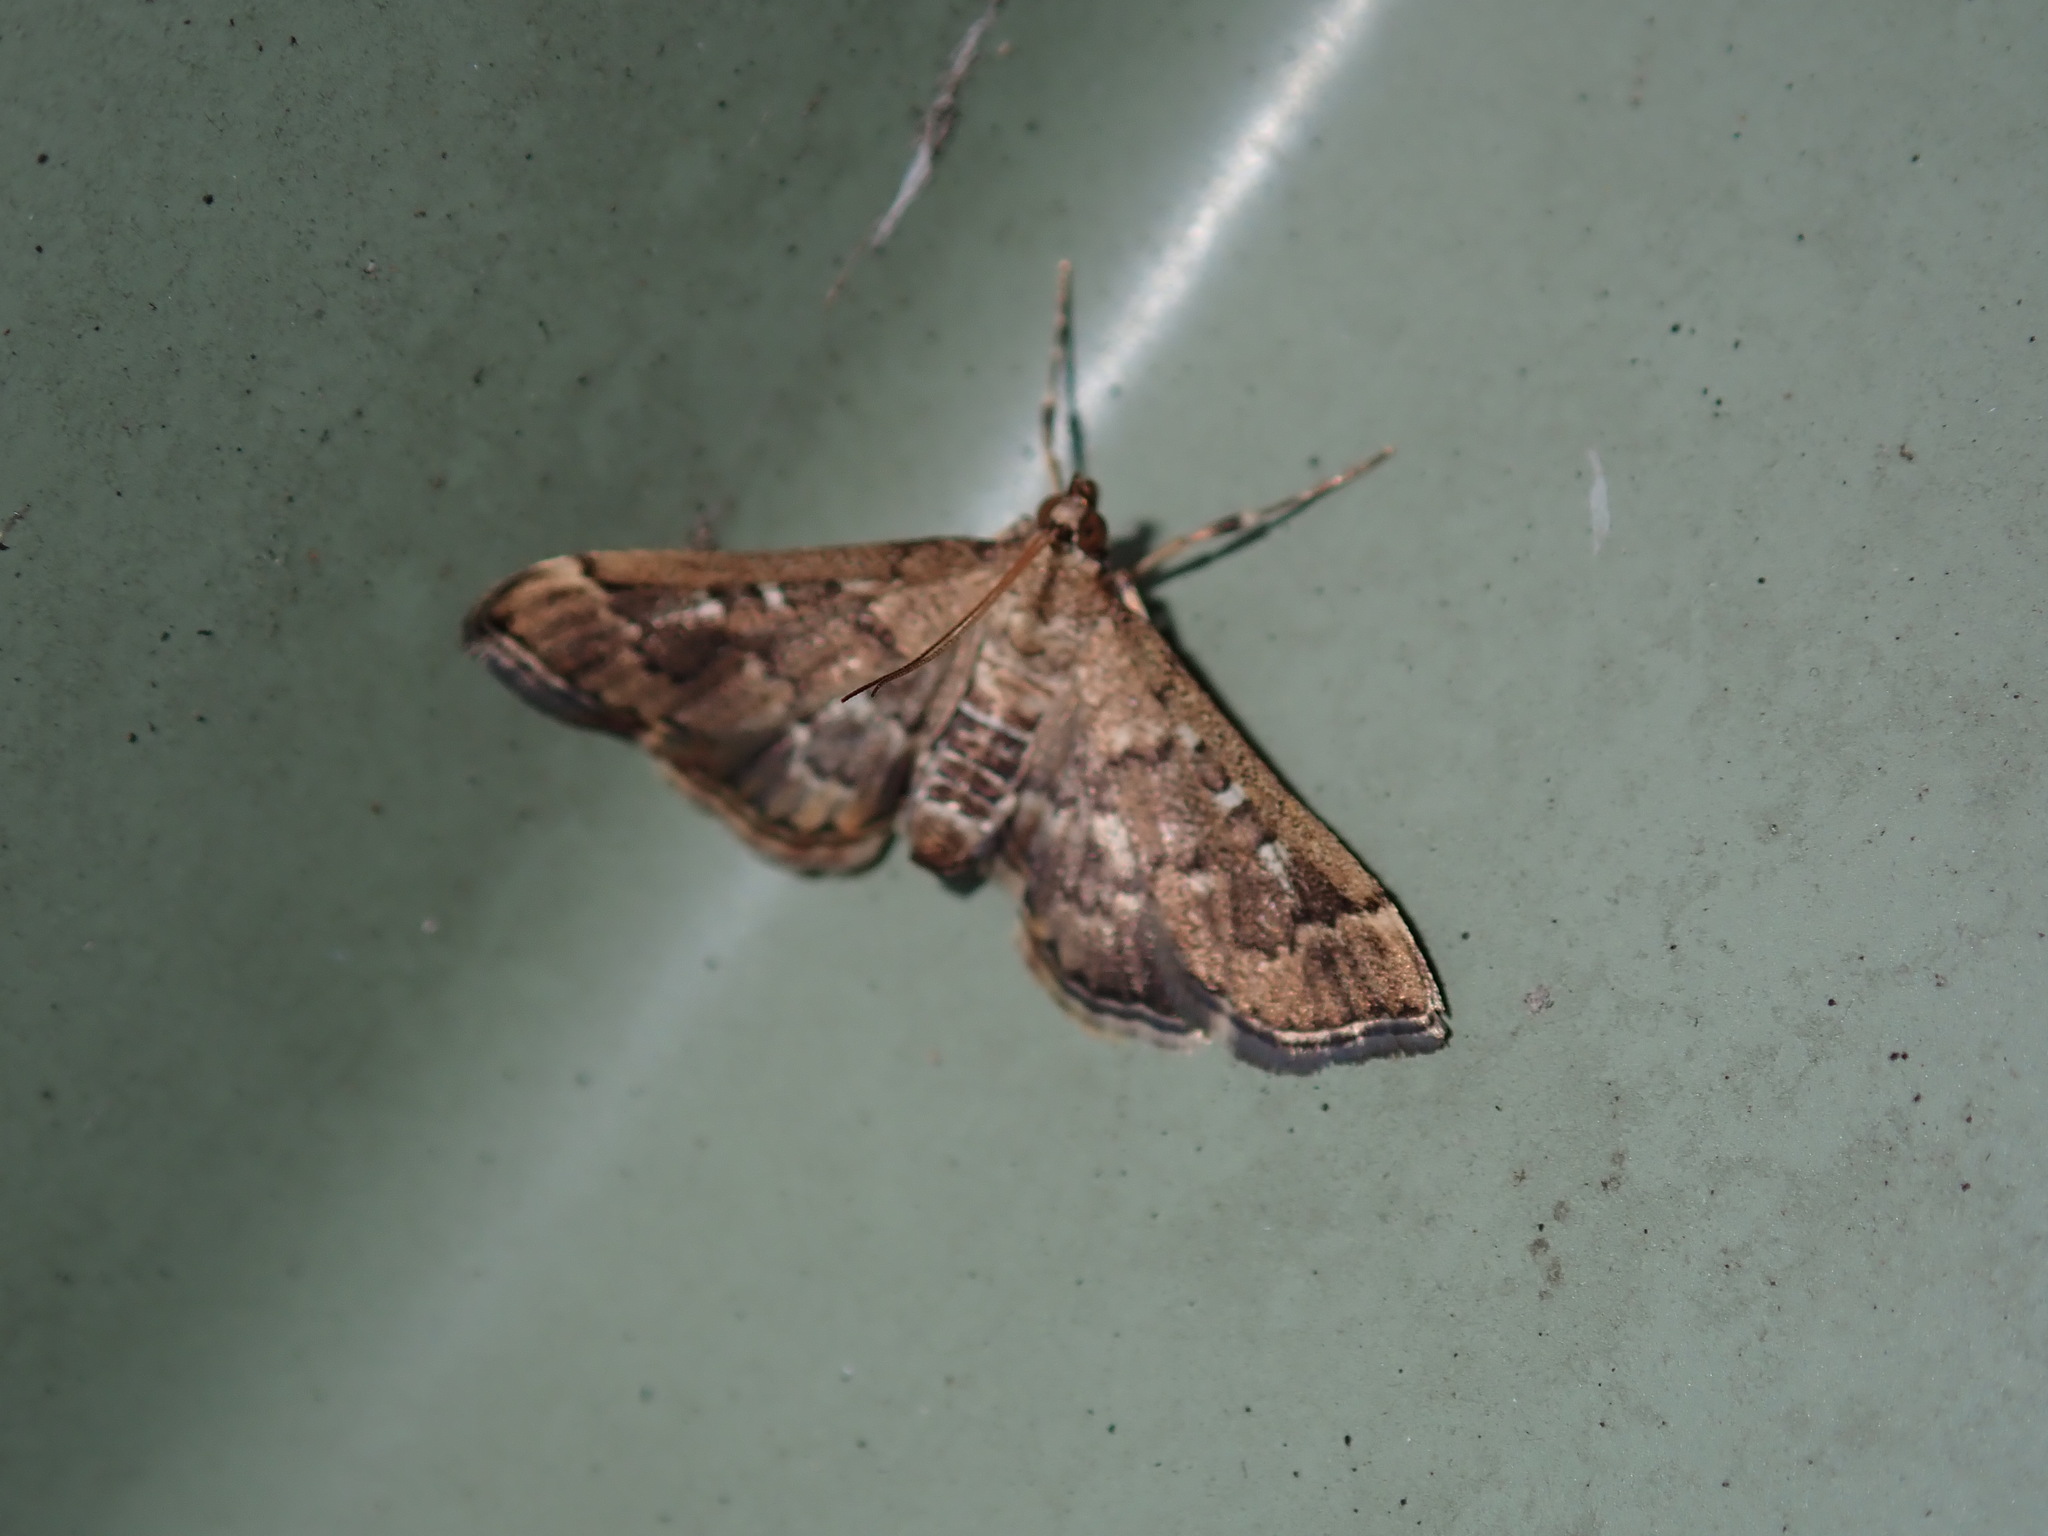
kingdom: Animalia
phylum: Arthropoda
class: Insecta
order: Lepidoptera
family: Crambidae
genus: Nacoleia
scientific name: Nacoleia rhoeoalis
